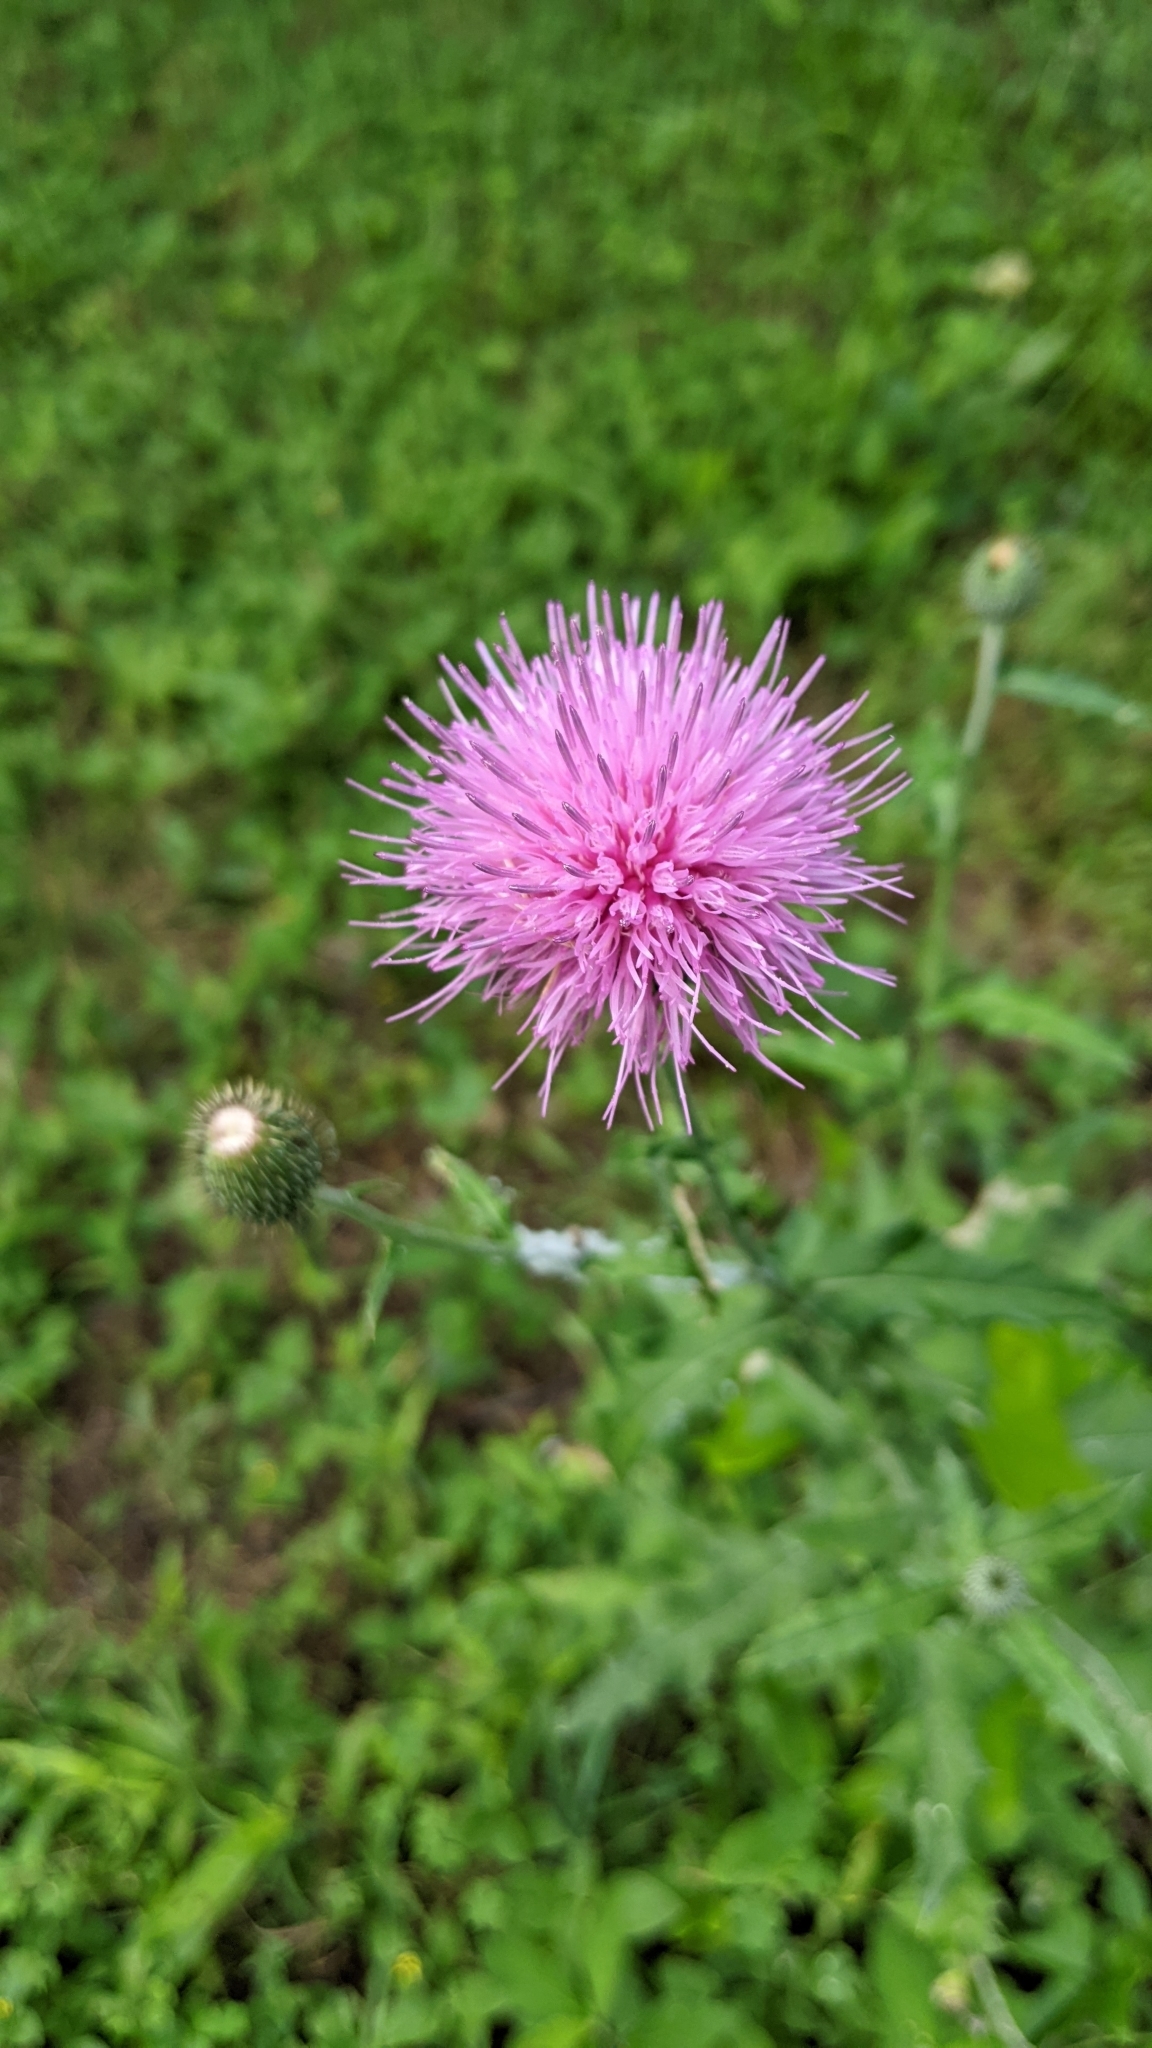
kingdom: Plantae
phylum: Tracheophyta
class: Magnoliopsida
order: Asterales
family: Asteraceae
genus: Cirsium
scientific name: Cirsium texanum
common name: Texas purple thistle
